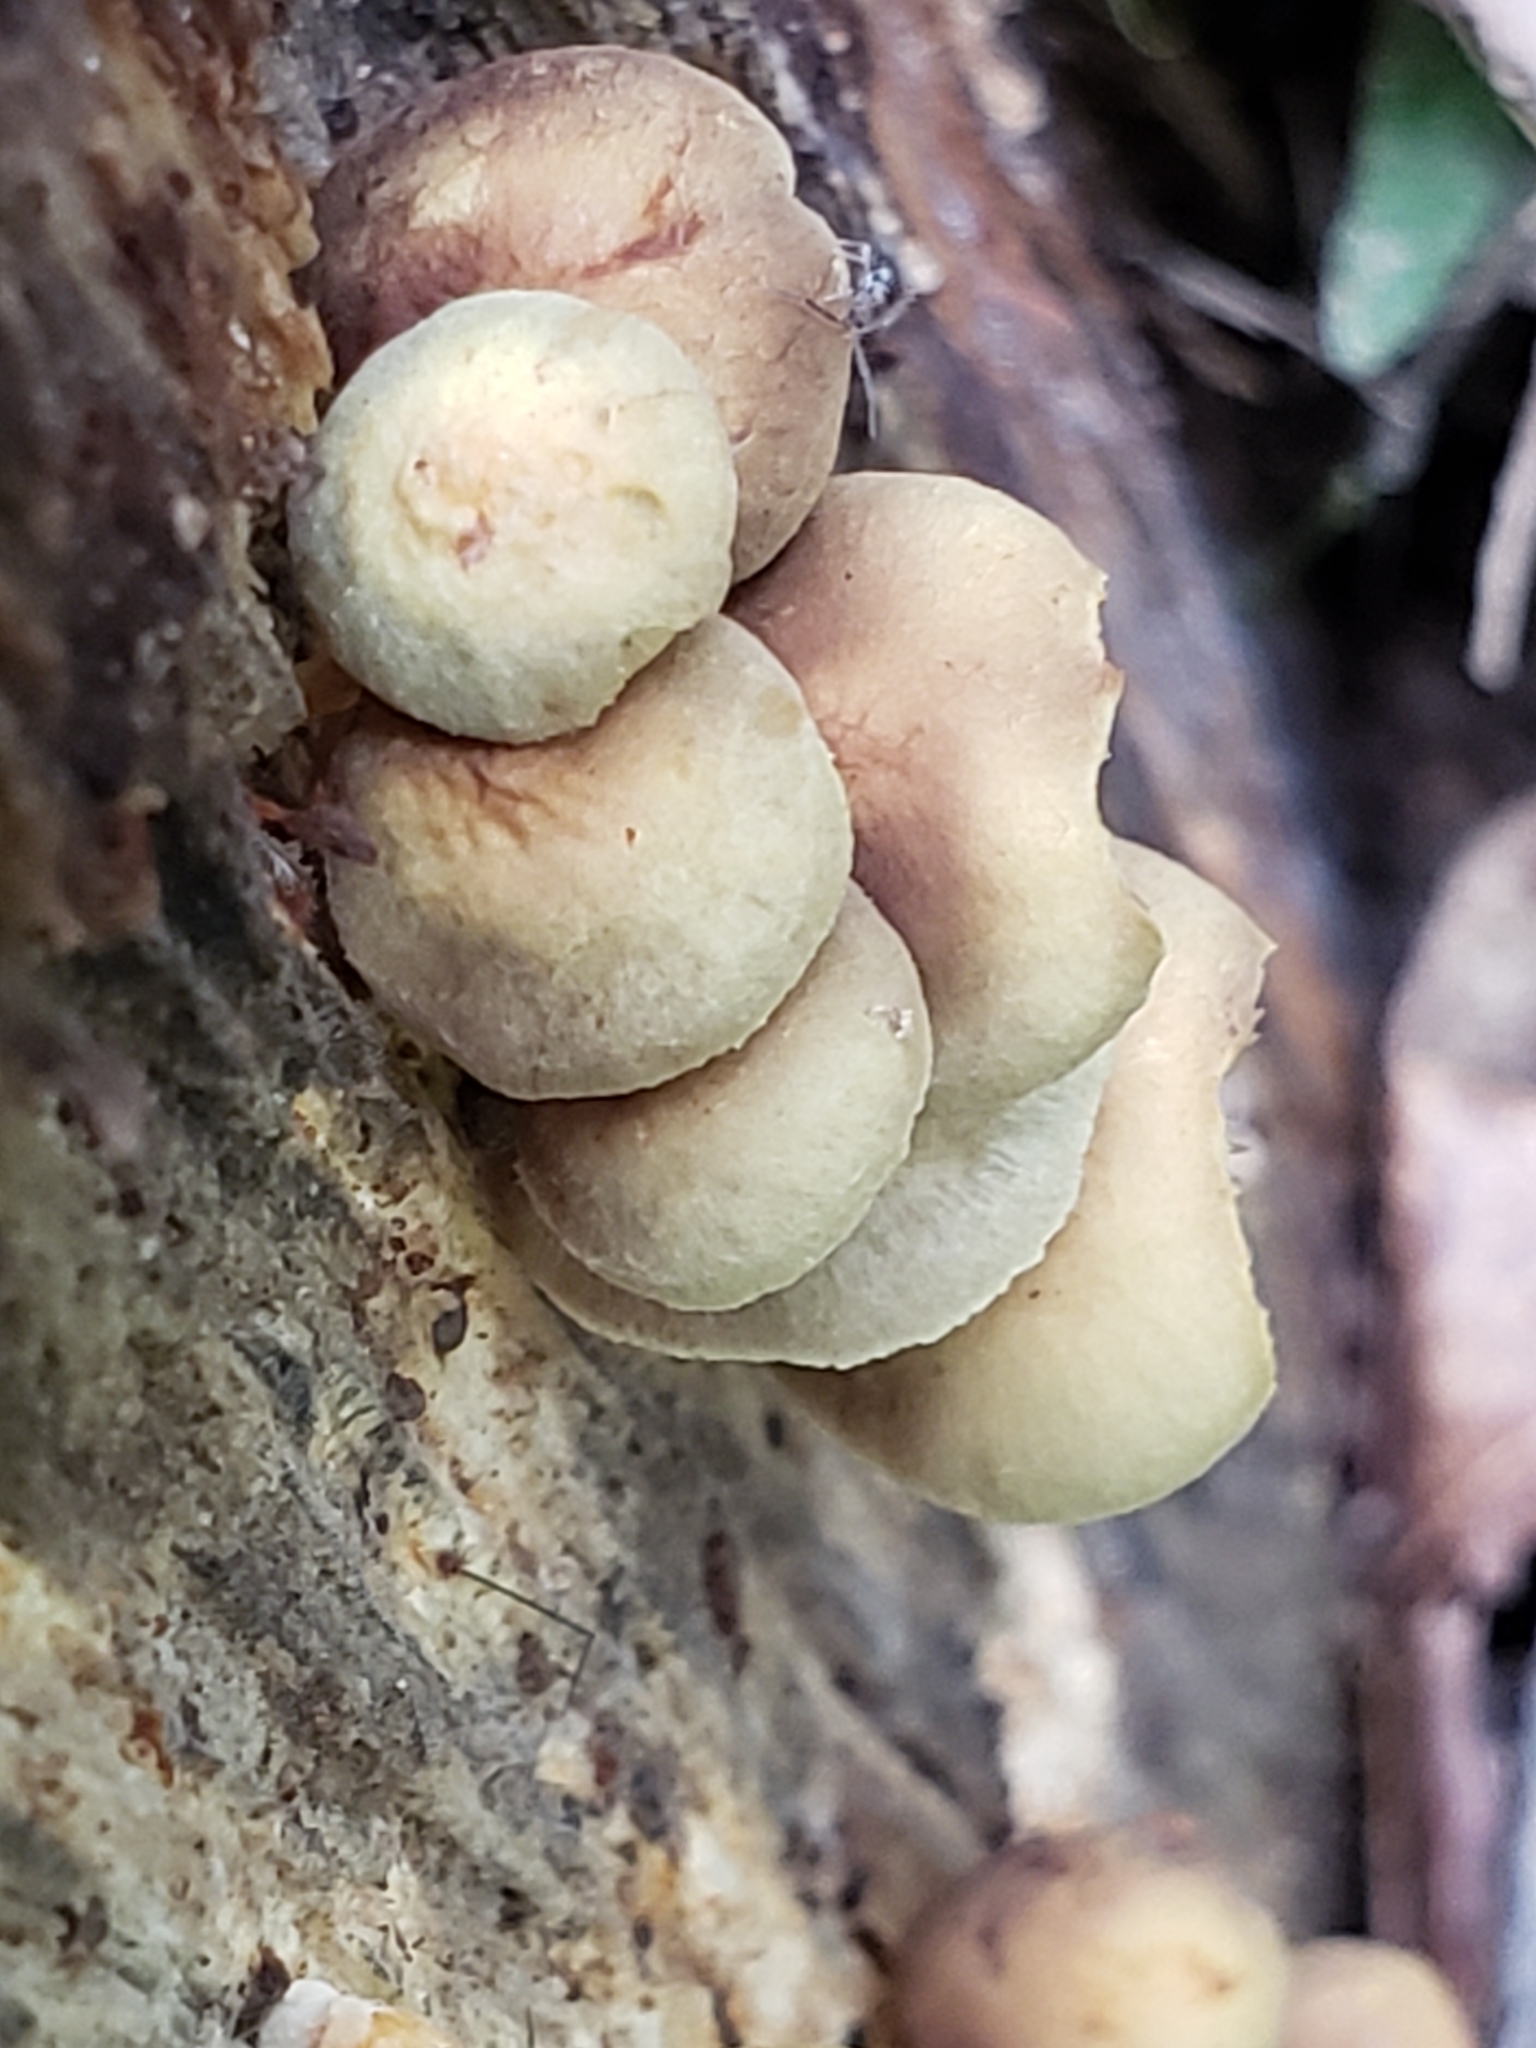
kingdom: Fungi
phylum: Basidiomycota
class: Agaricomycetes
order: Agaricales
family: Strophariaceae
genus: Hypholoma
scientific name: Hypholoma fasciculare
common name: Sulphur tuft
